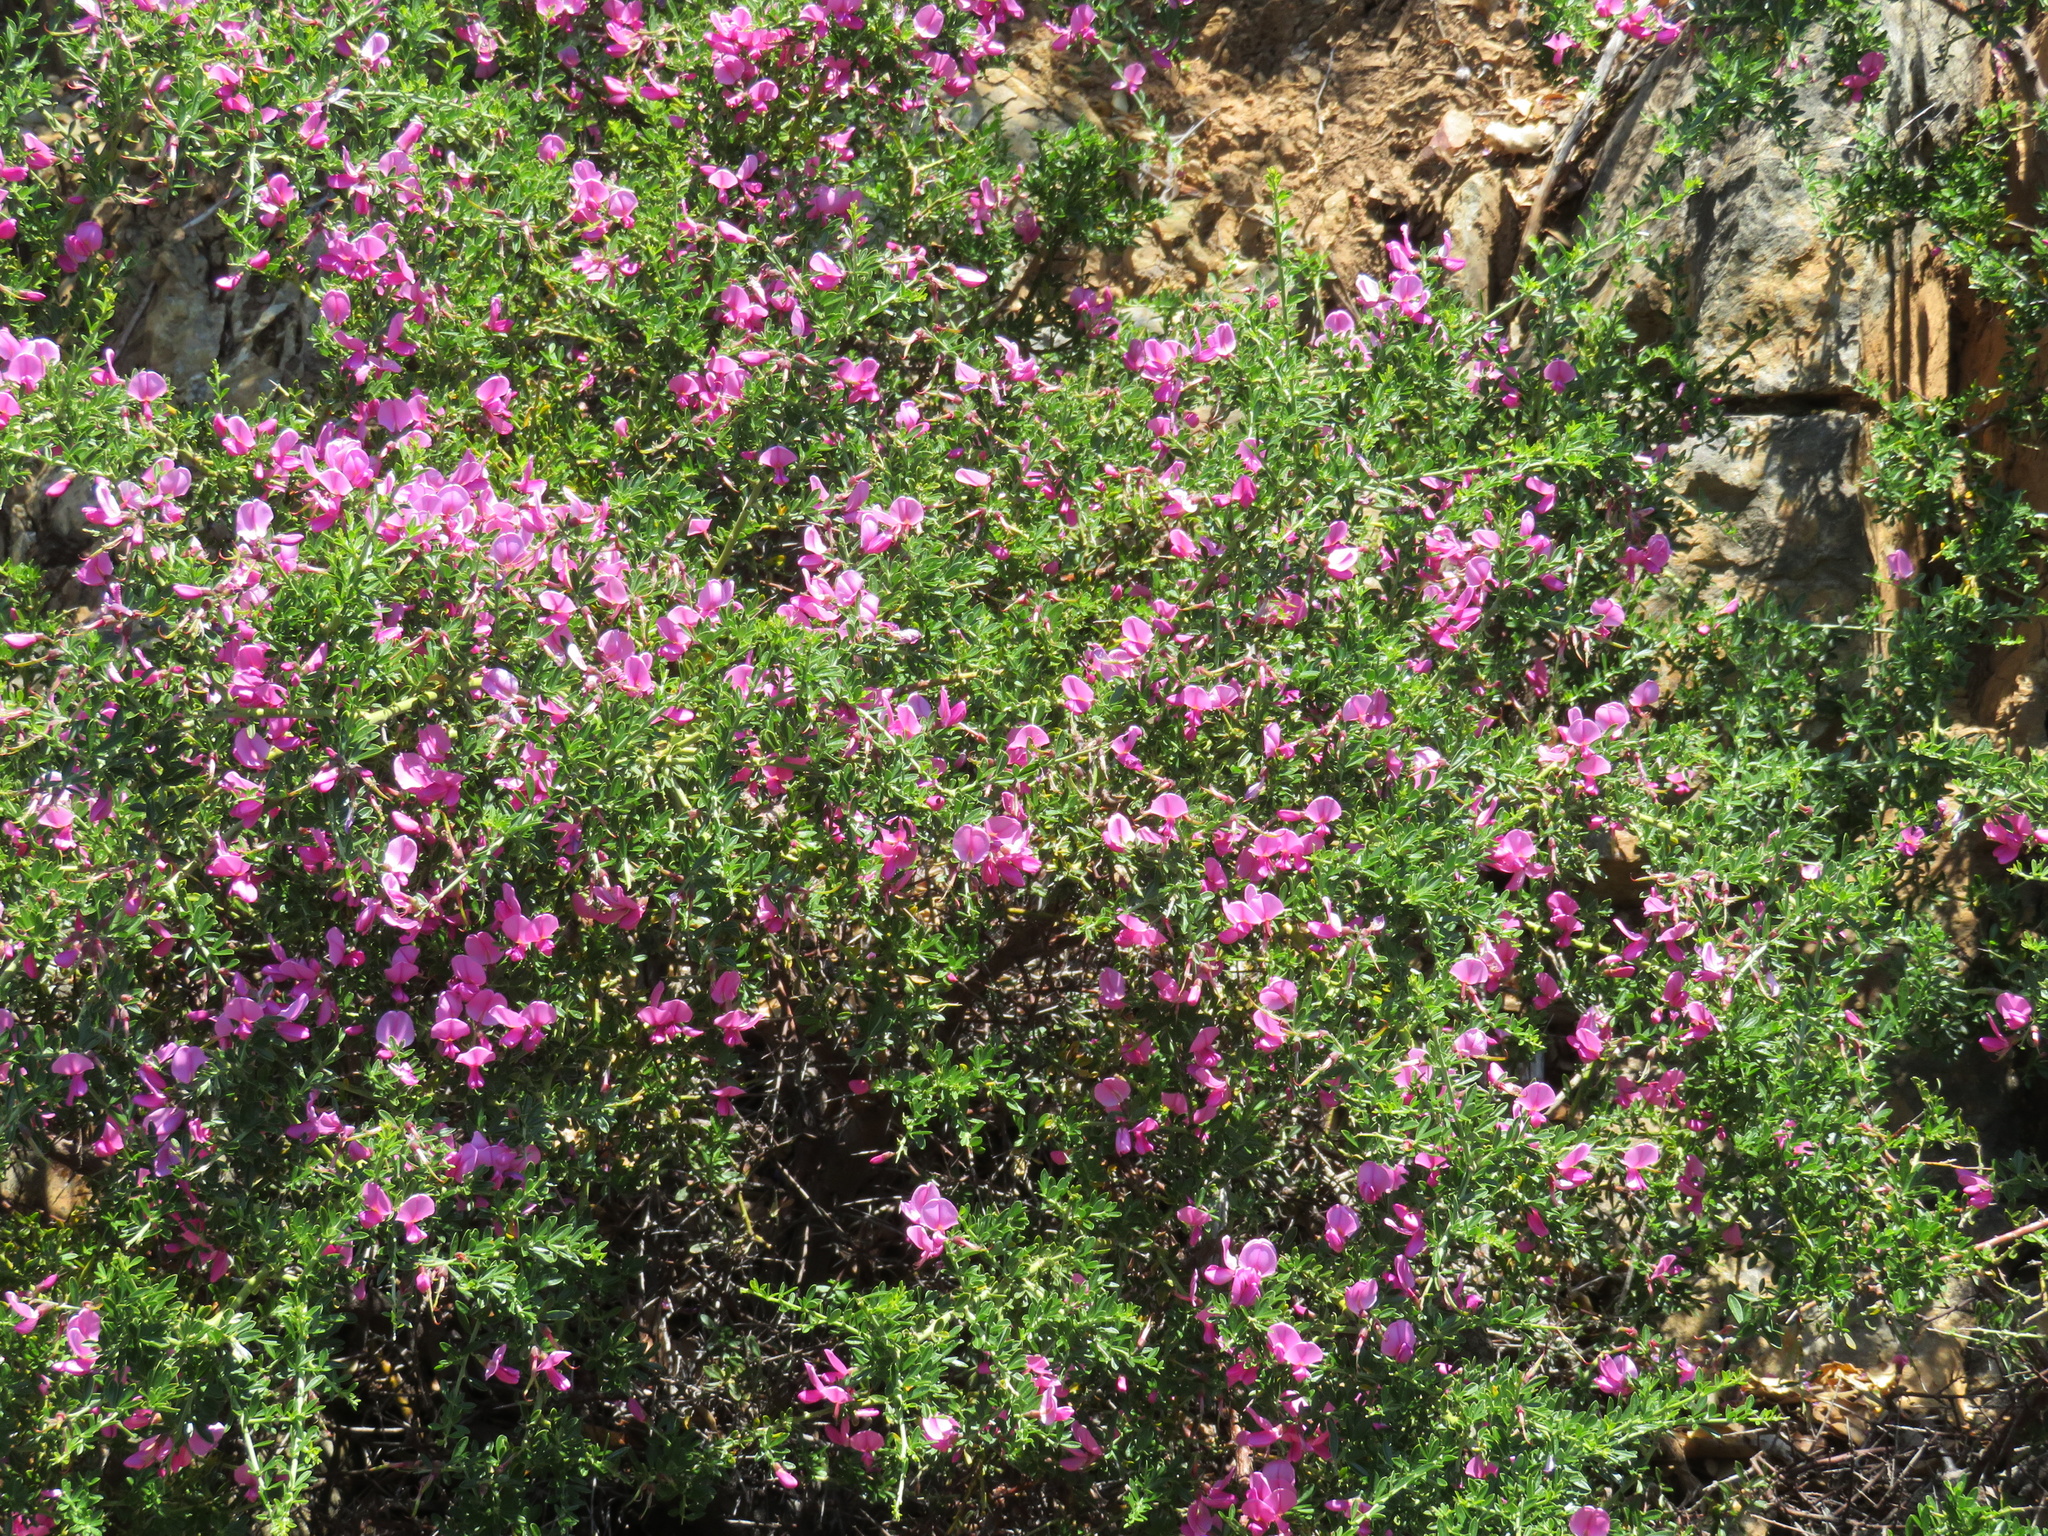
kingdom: Plantae
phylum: Tracheophyta
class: Magnoliopsida
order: Fabales
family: Fabaceae
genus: Pickeringia
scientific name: Pickeringia montana
